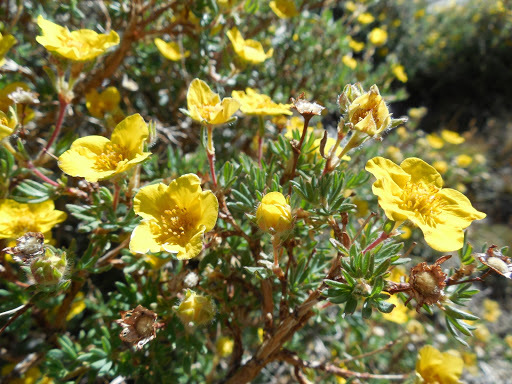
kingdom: Plantae
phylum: Tracheophyta
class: Magnoliopsida
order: Rosales
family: Rosaceae
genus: Dasiphora
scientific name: Dasiphora fruticosa
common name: Shrubby cinquefoil
